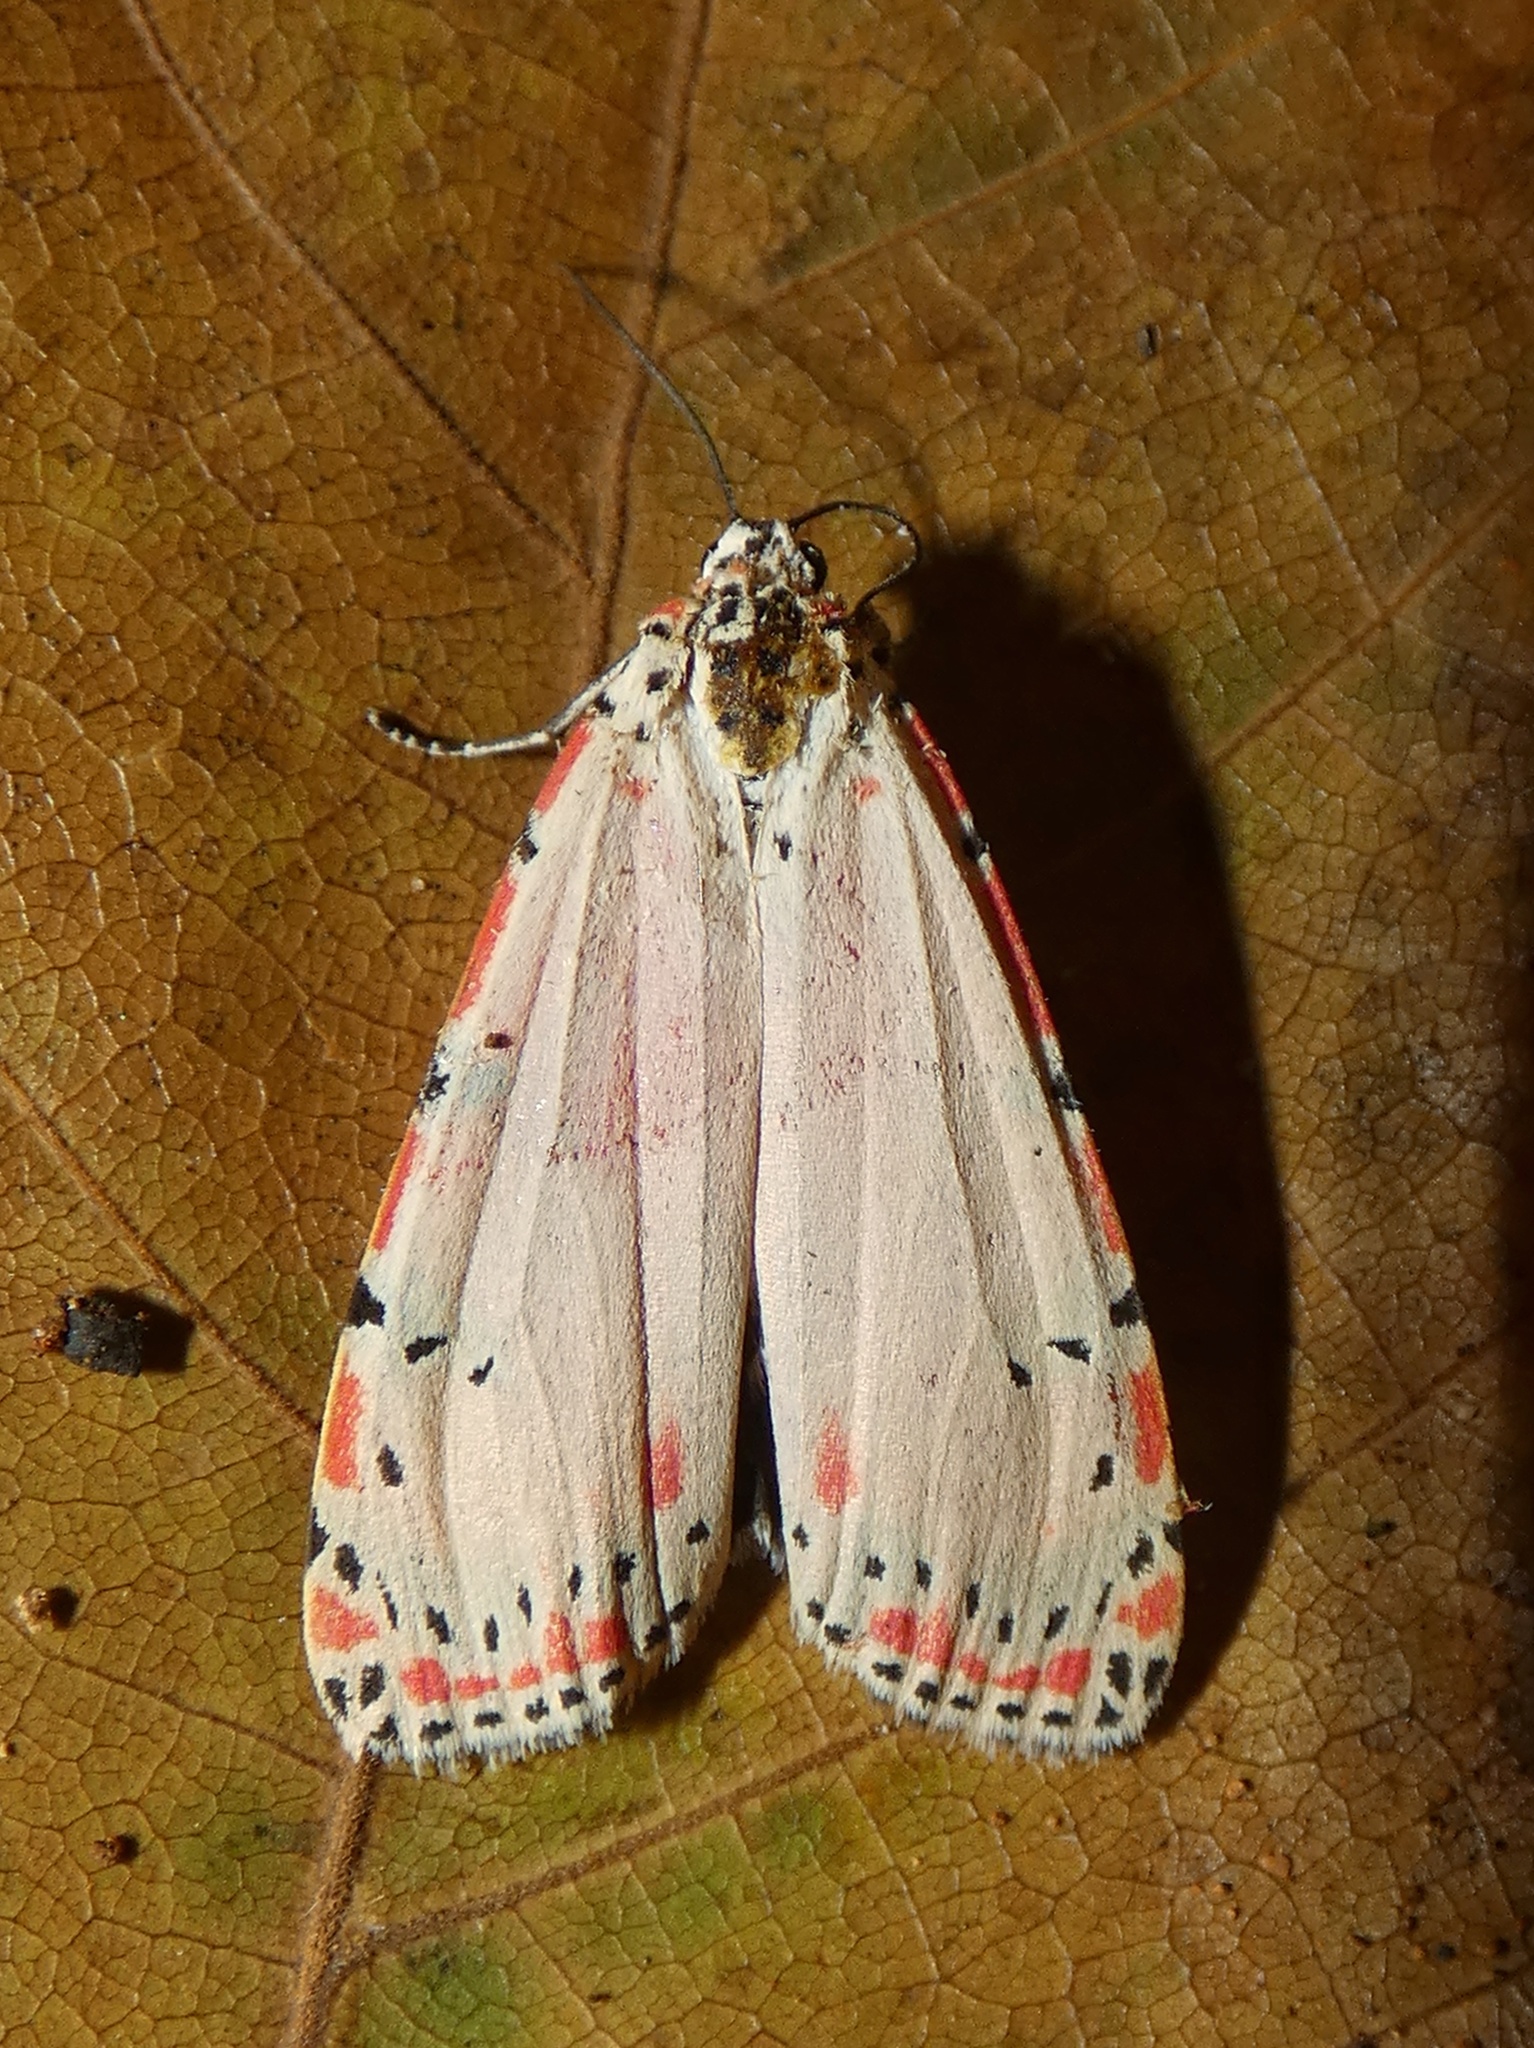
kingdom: Animalia
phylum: Arthropoda
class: Insecta
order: Lepidoptera
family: Erebidae
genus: Utetheisa
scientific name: Utetheisa ornatrix
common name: Beautiful utetheisa
